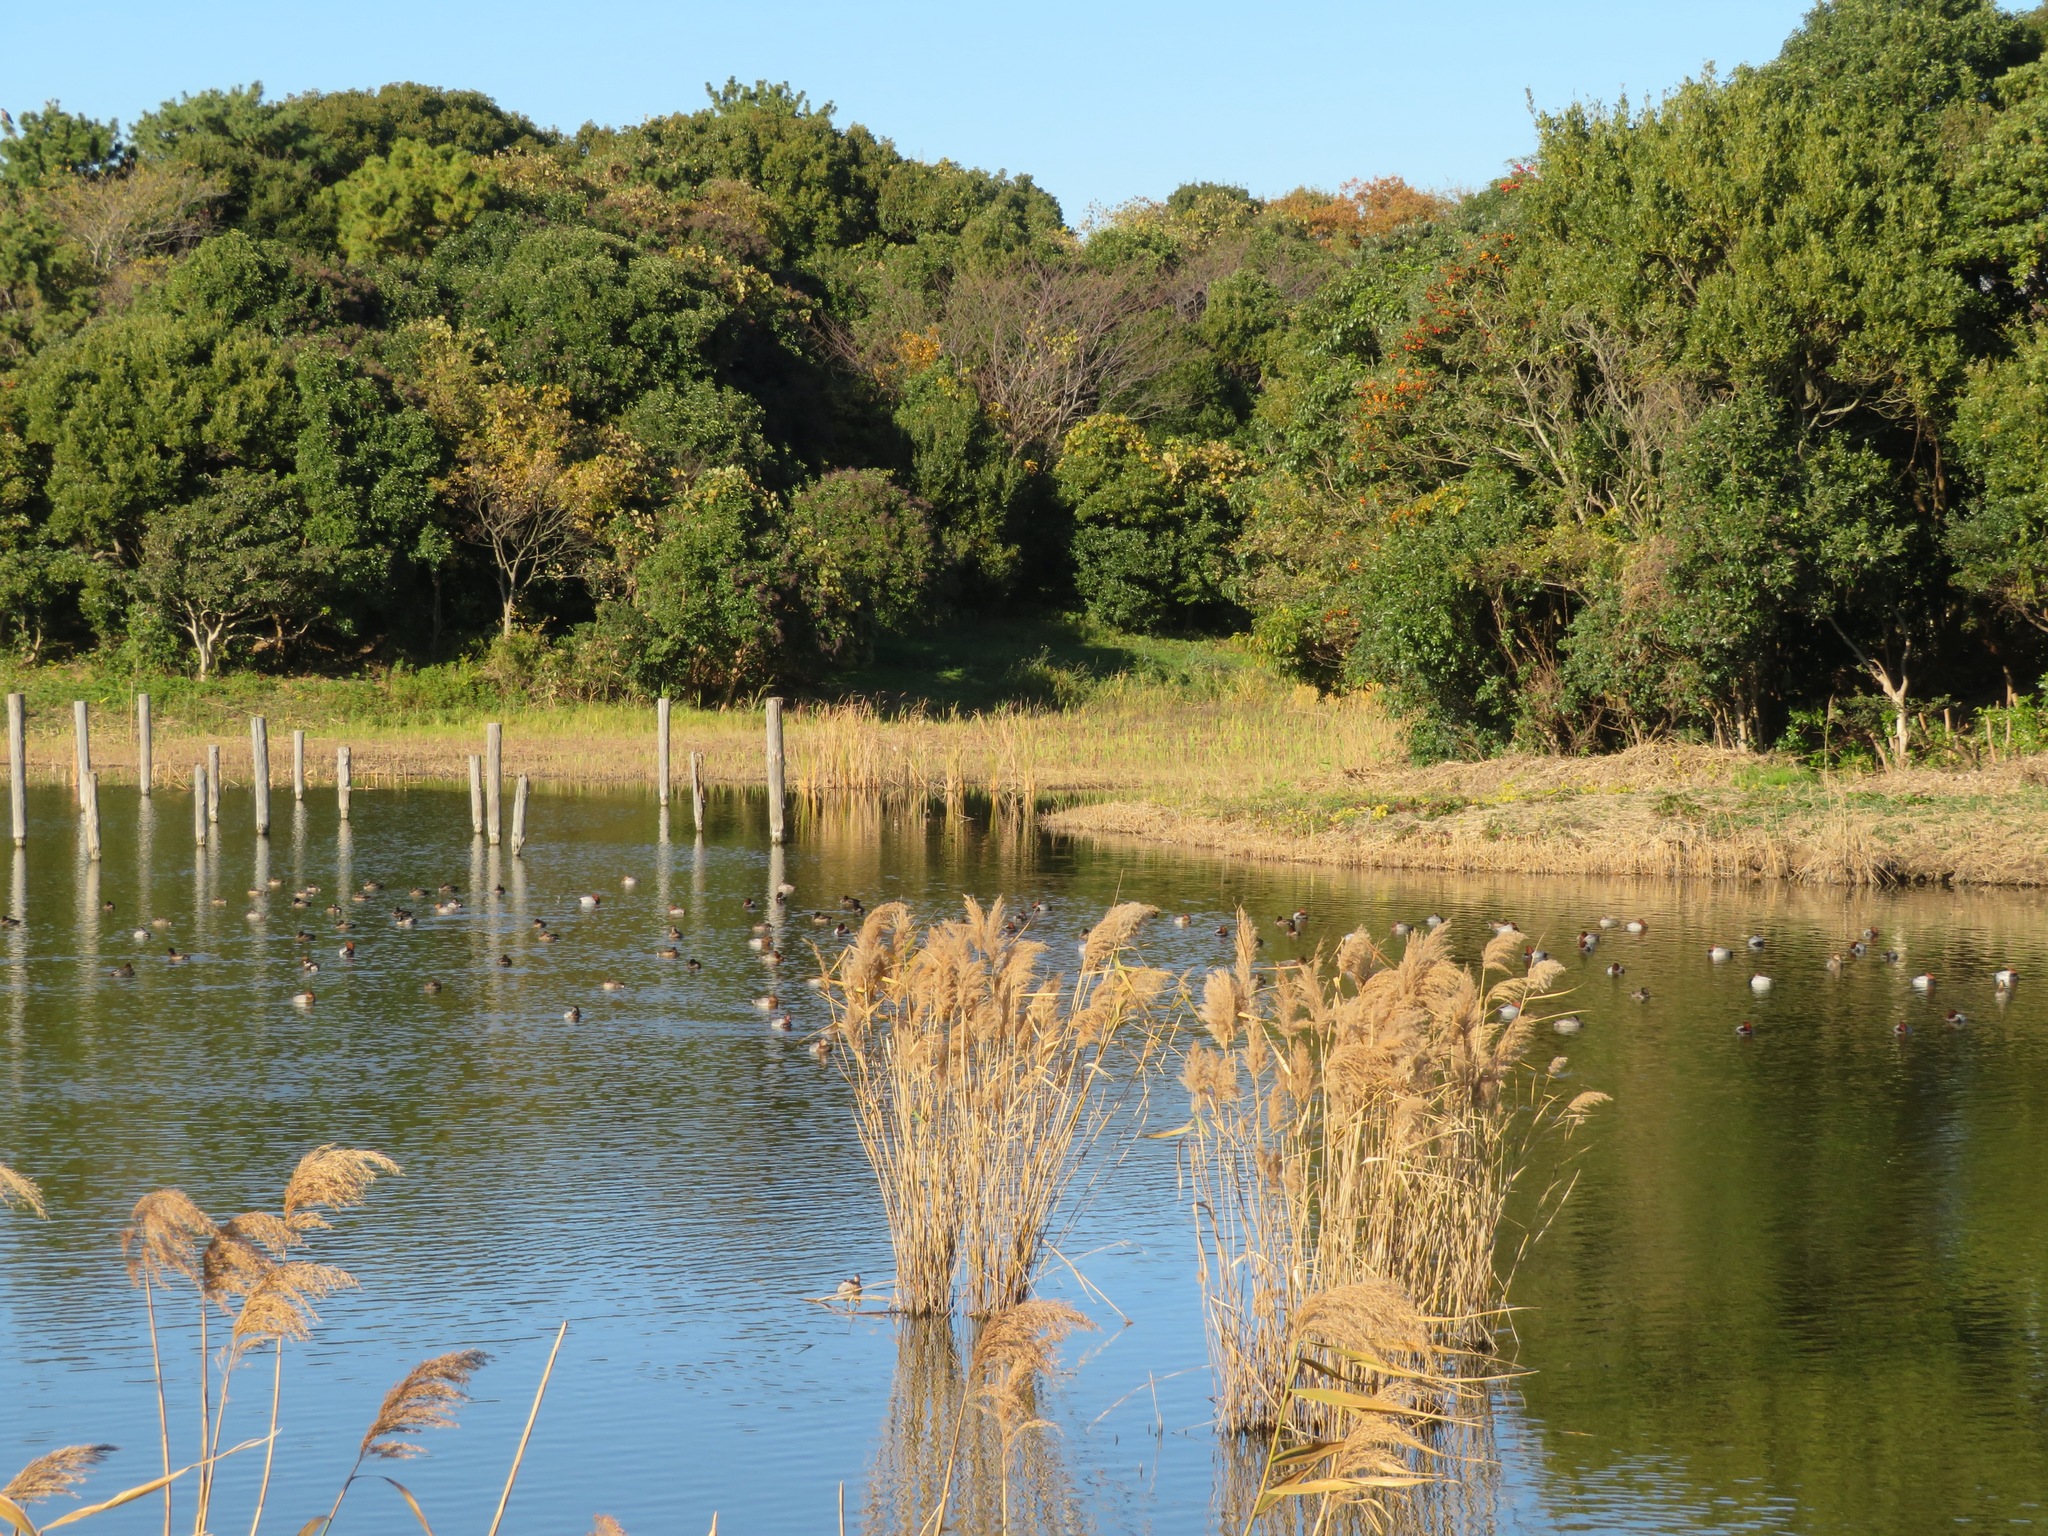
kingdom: Animalia
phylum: Chordata
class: Aves
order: Anseriformes
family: Anatidae
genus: Aythya
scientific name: Aythya ferina
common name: Common pochard
